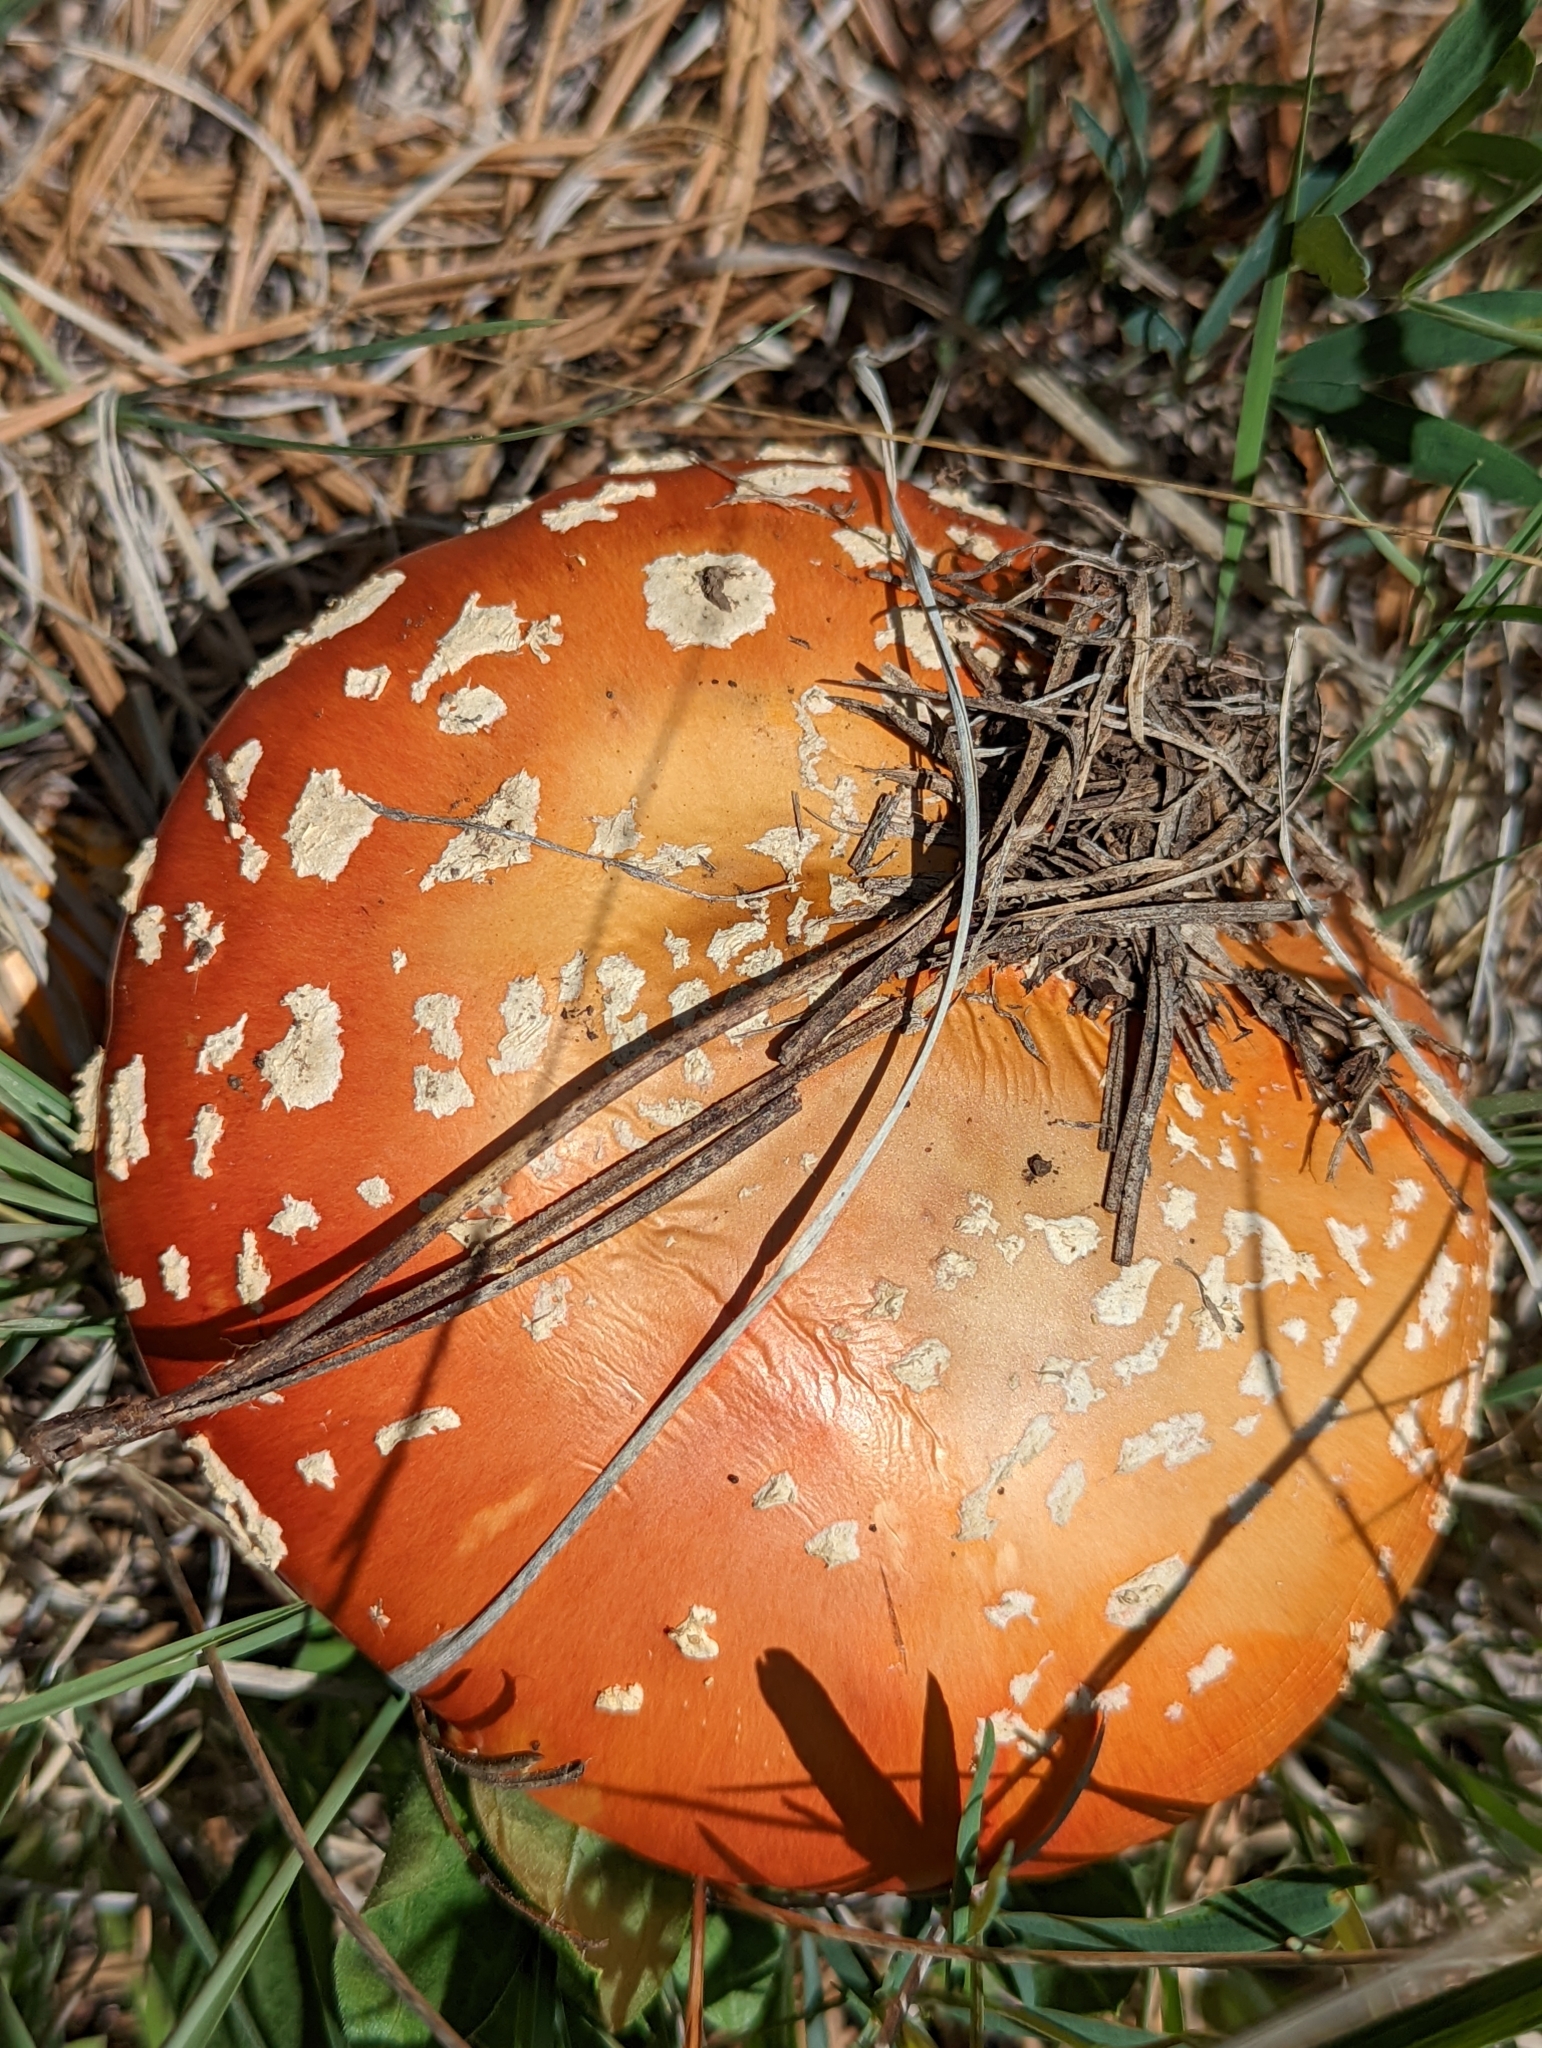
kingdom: Fungi
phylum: Basidiomycota
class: Agaricomycetes
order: Agaricales
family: Amanitaceae
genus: Amanita
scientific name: Amanita muscaria
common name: Fly agaric
